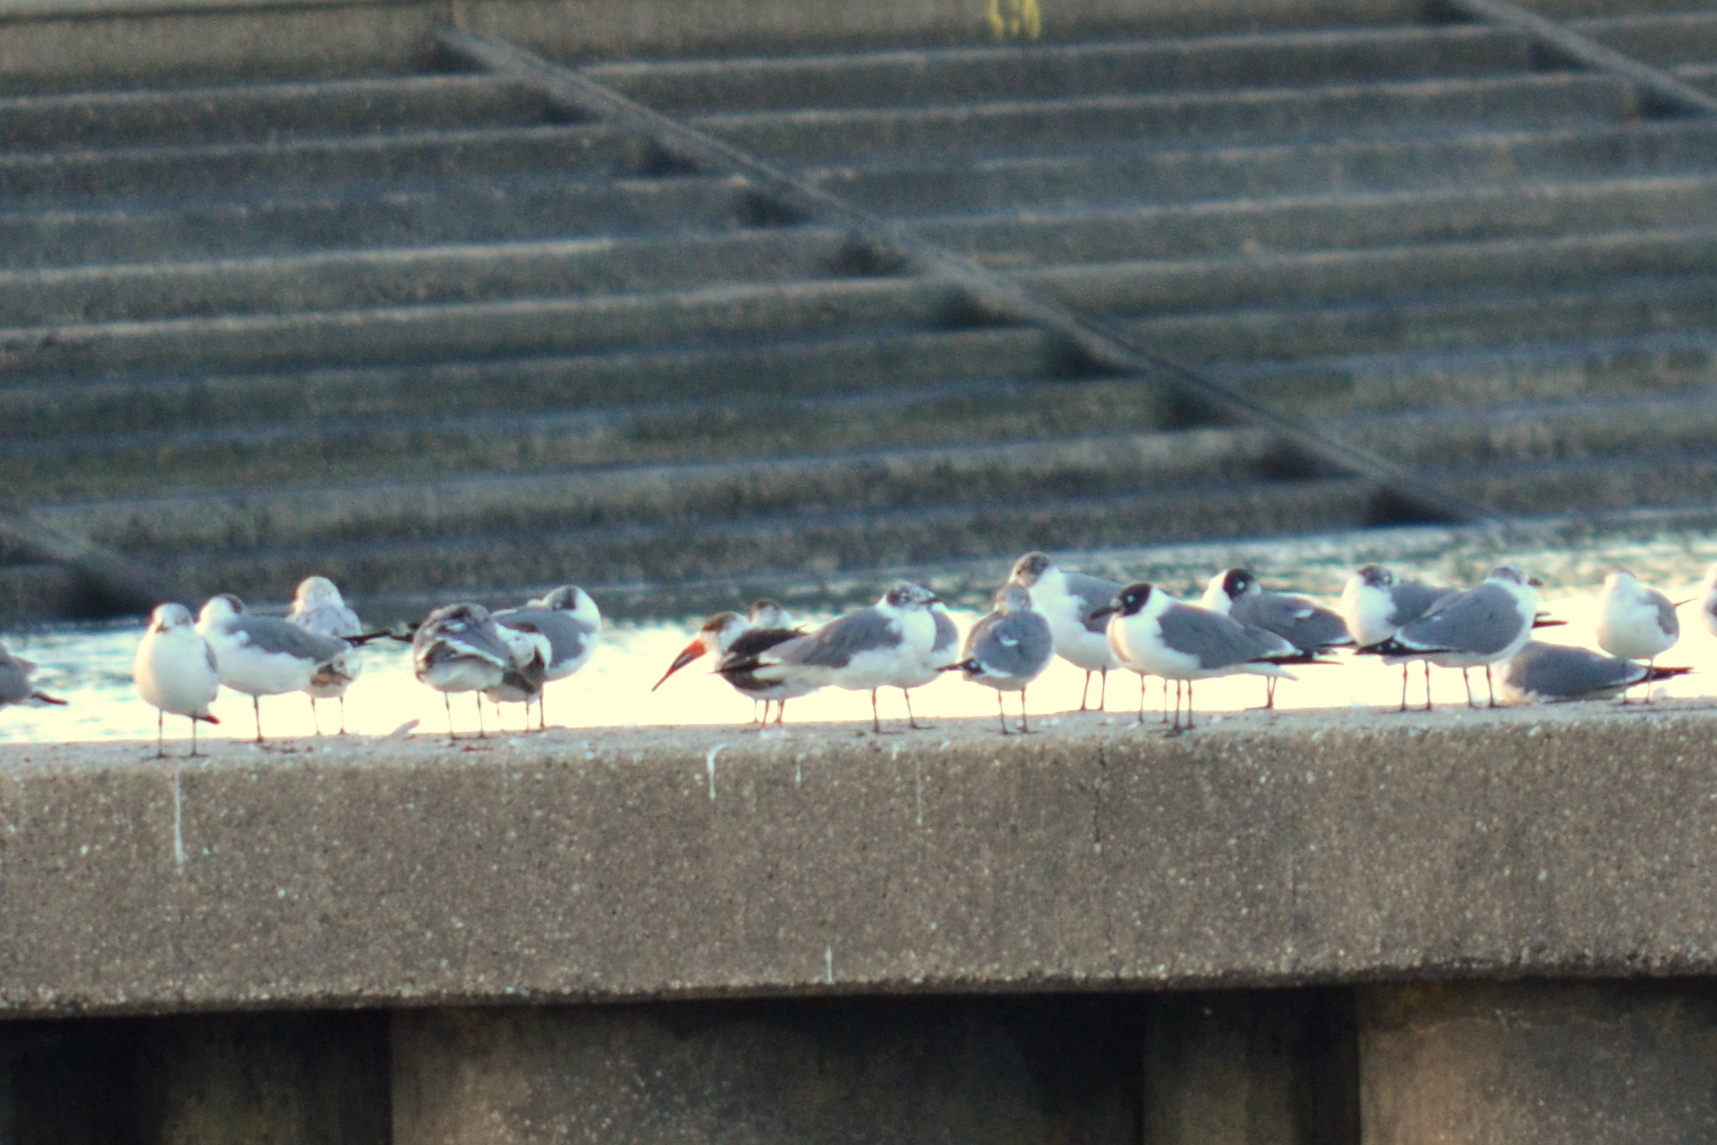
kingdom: Animalia
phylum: Chordata
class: Aves
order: Charadriiformes
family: Laridae
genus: Rynchops
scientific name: Rynchops niger
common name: Black skimmer
